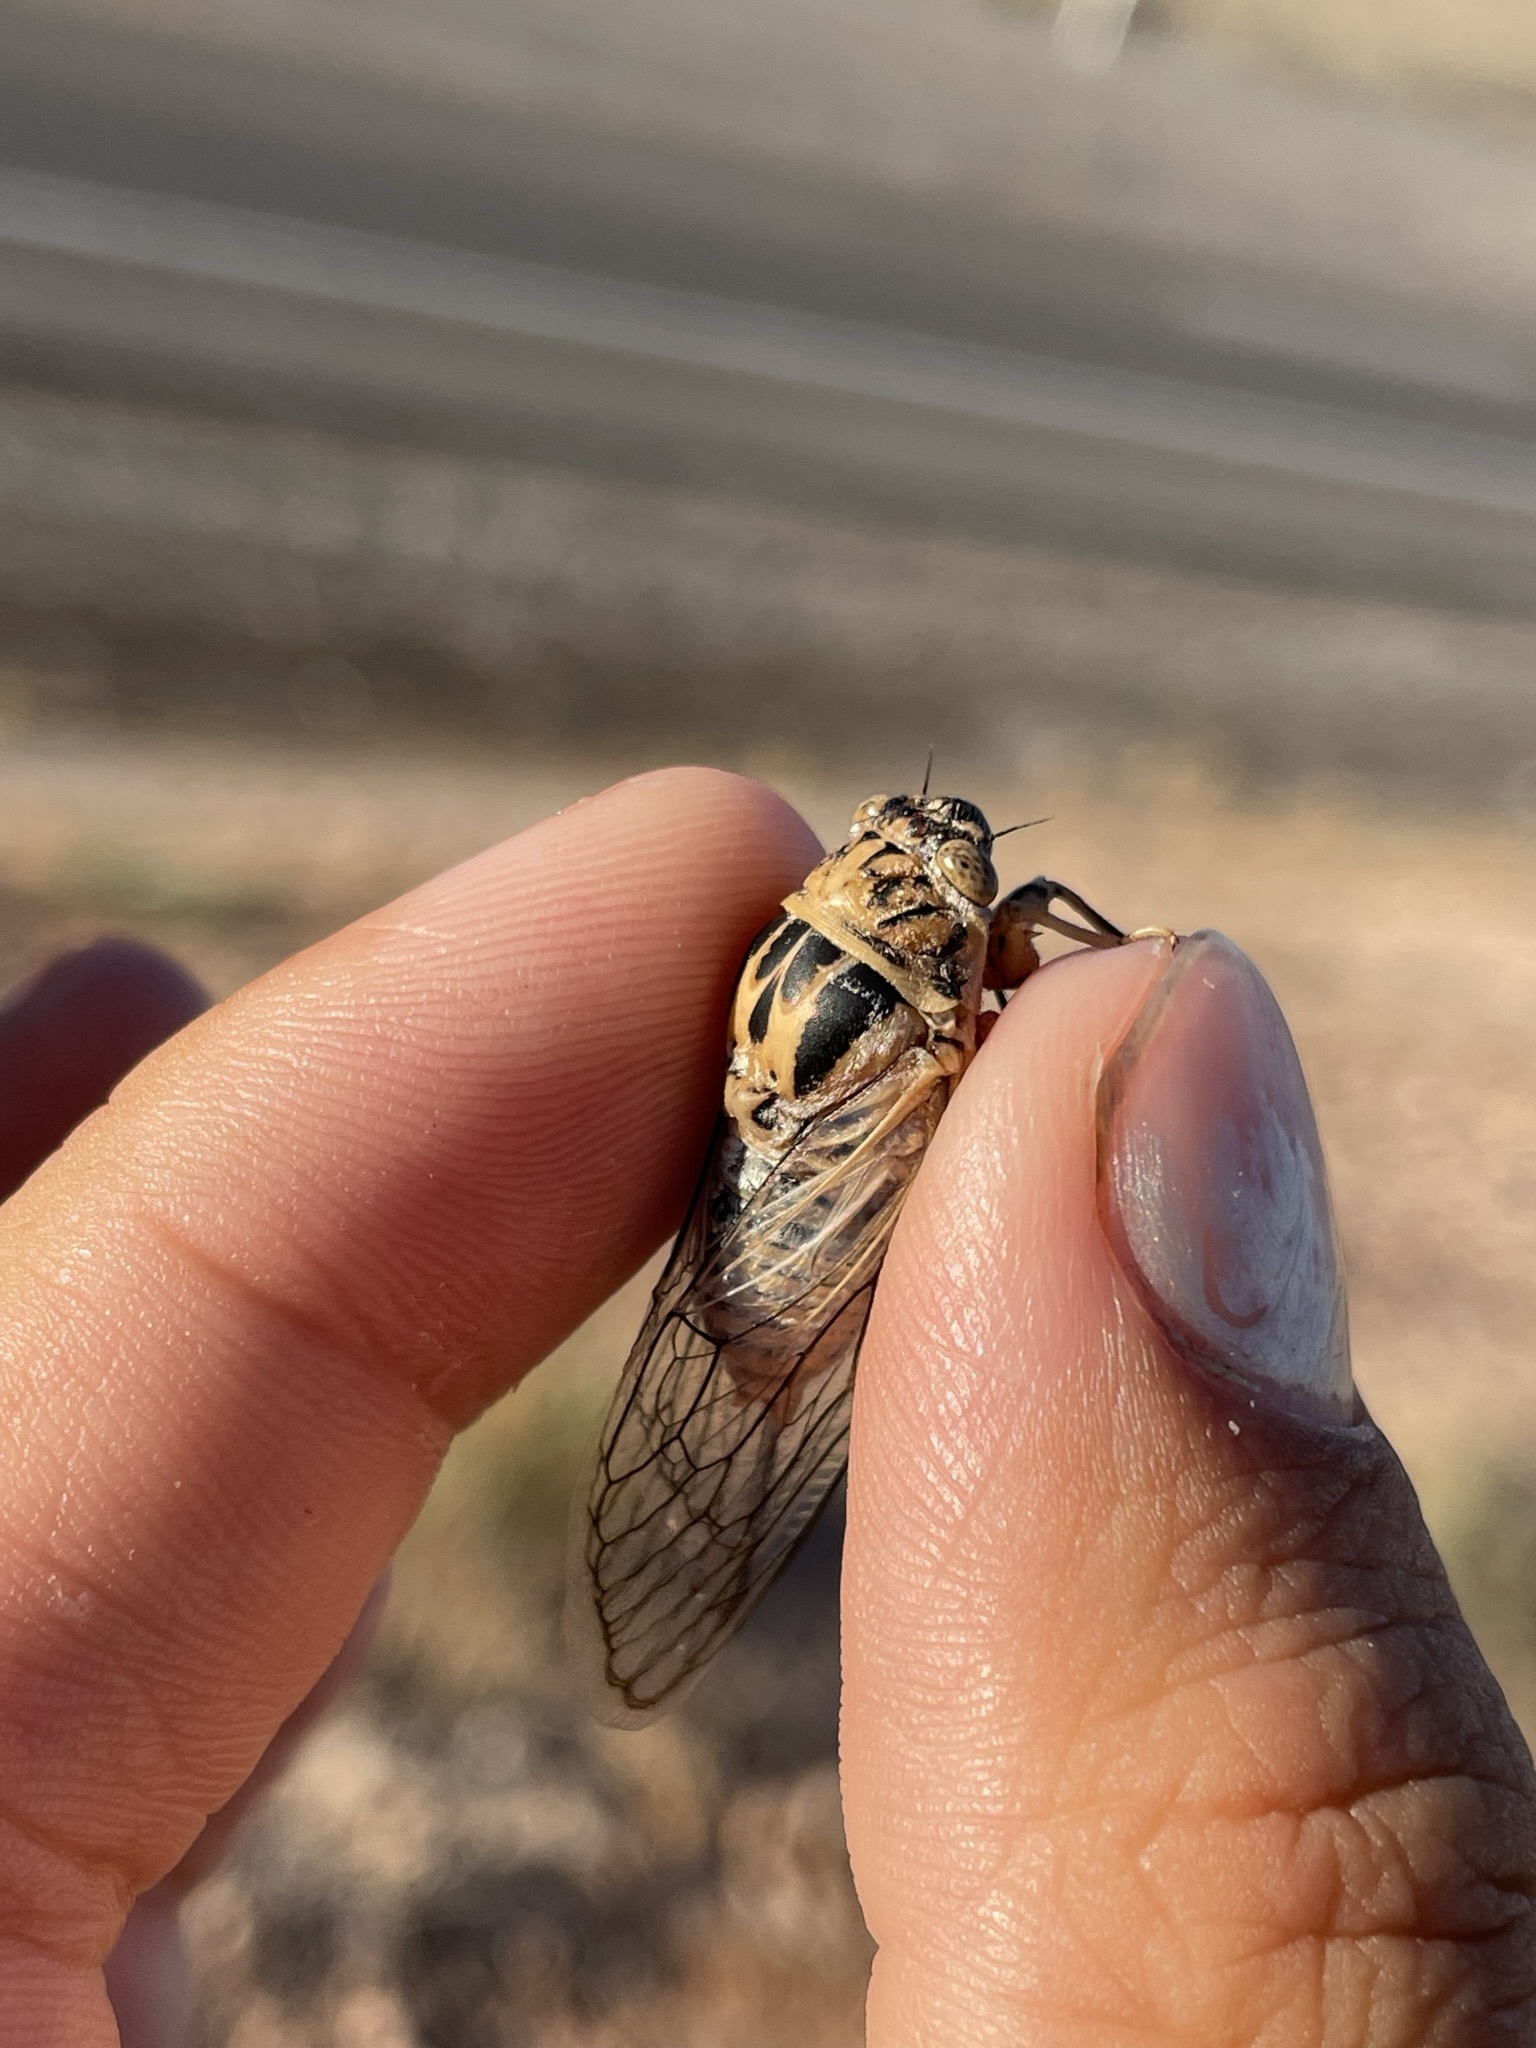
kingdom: Animalia
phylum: Arthropoda
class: Insecta
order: Hemiptera
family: Cicadidae
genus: Clidophleps
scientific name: Clidophleps vagans
